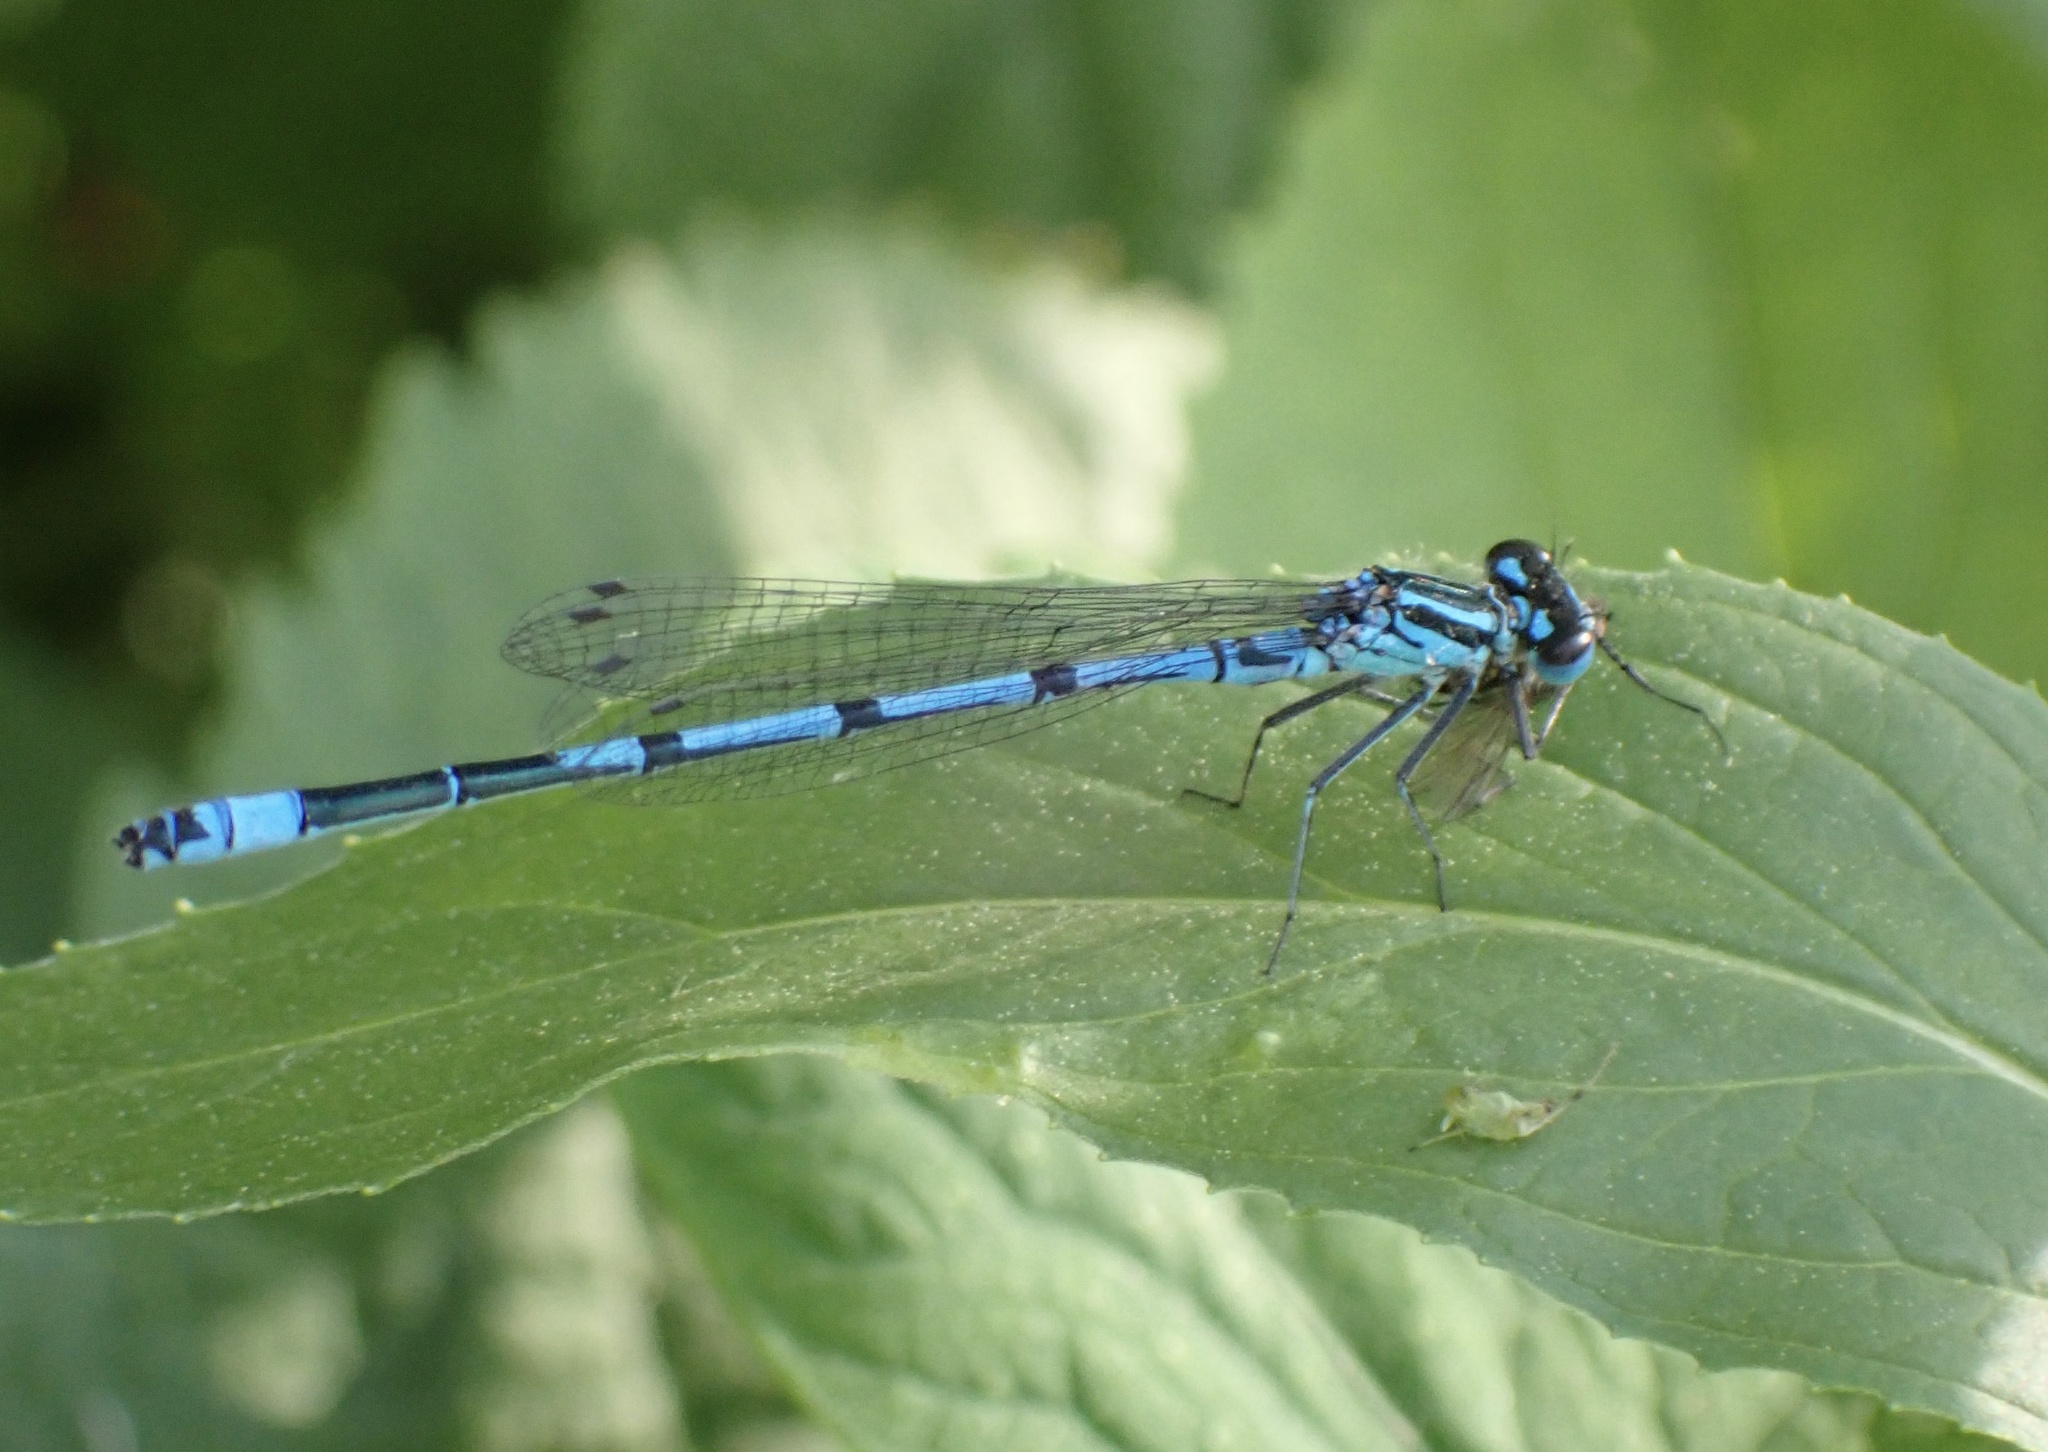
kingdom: Animalia
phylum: Arthropoda
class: Insecta
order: Odonata
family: Coenagrionidae
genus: Coenagrion
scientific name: Coenagrion puella
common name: Azure damselfly
